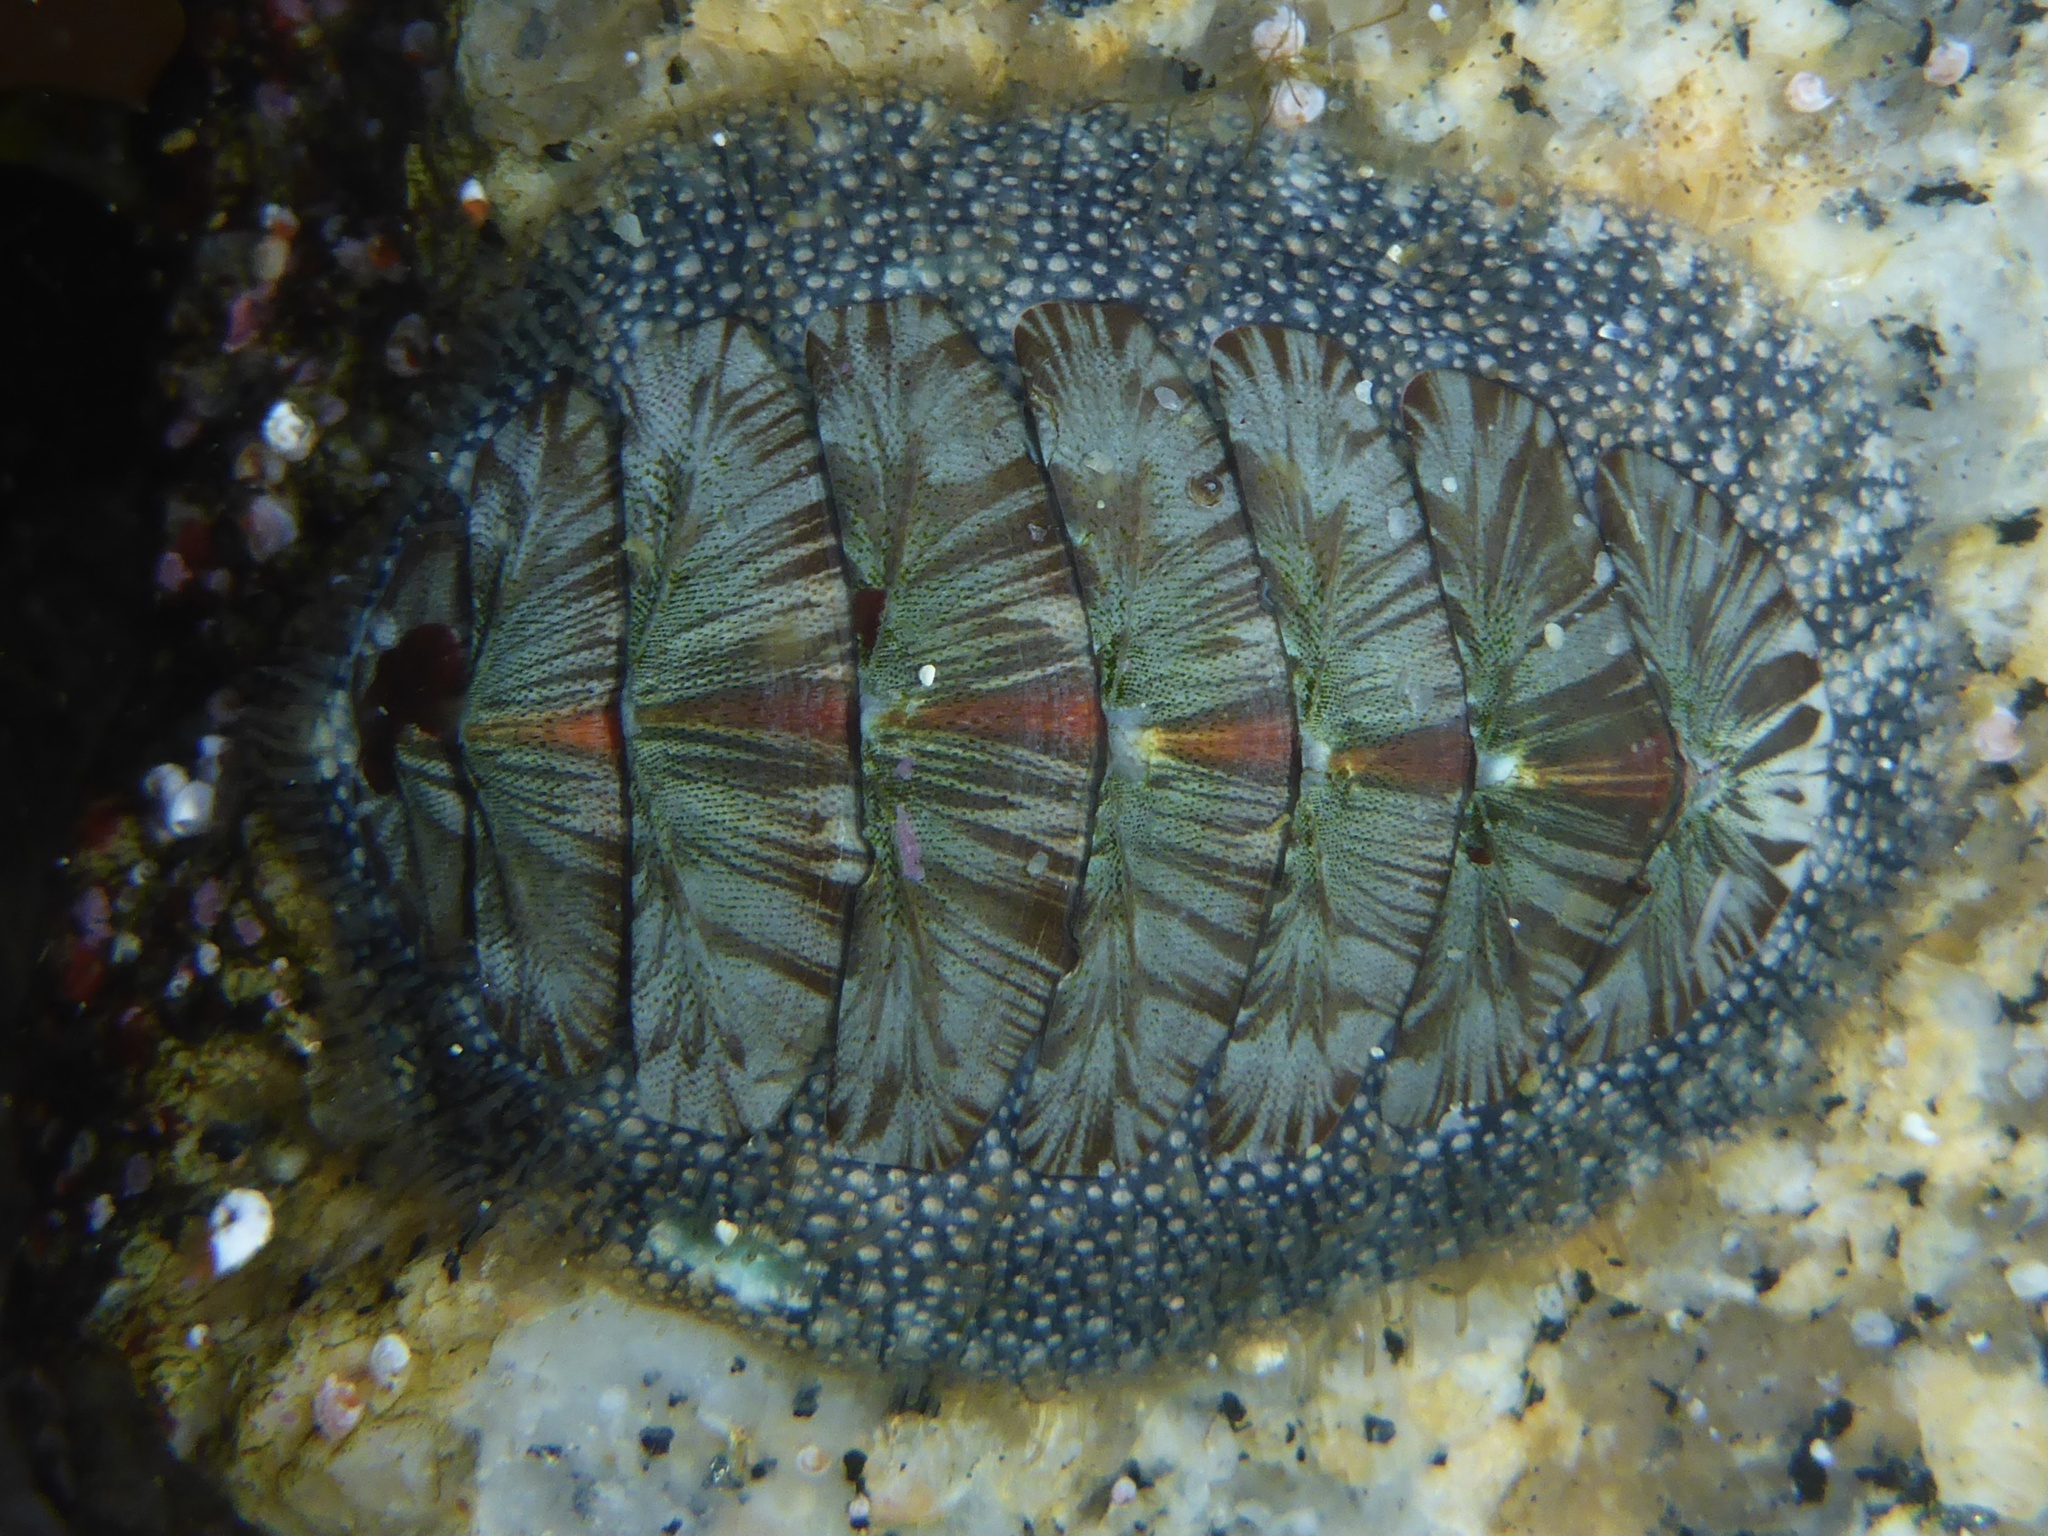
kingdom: Animalia
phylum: Mollusca
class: Polyplacophora
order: Chitonida
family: Mopaliidae
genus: Mopalia
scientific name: Mopalia lignosa
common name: Woody chiton
